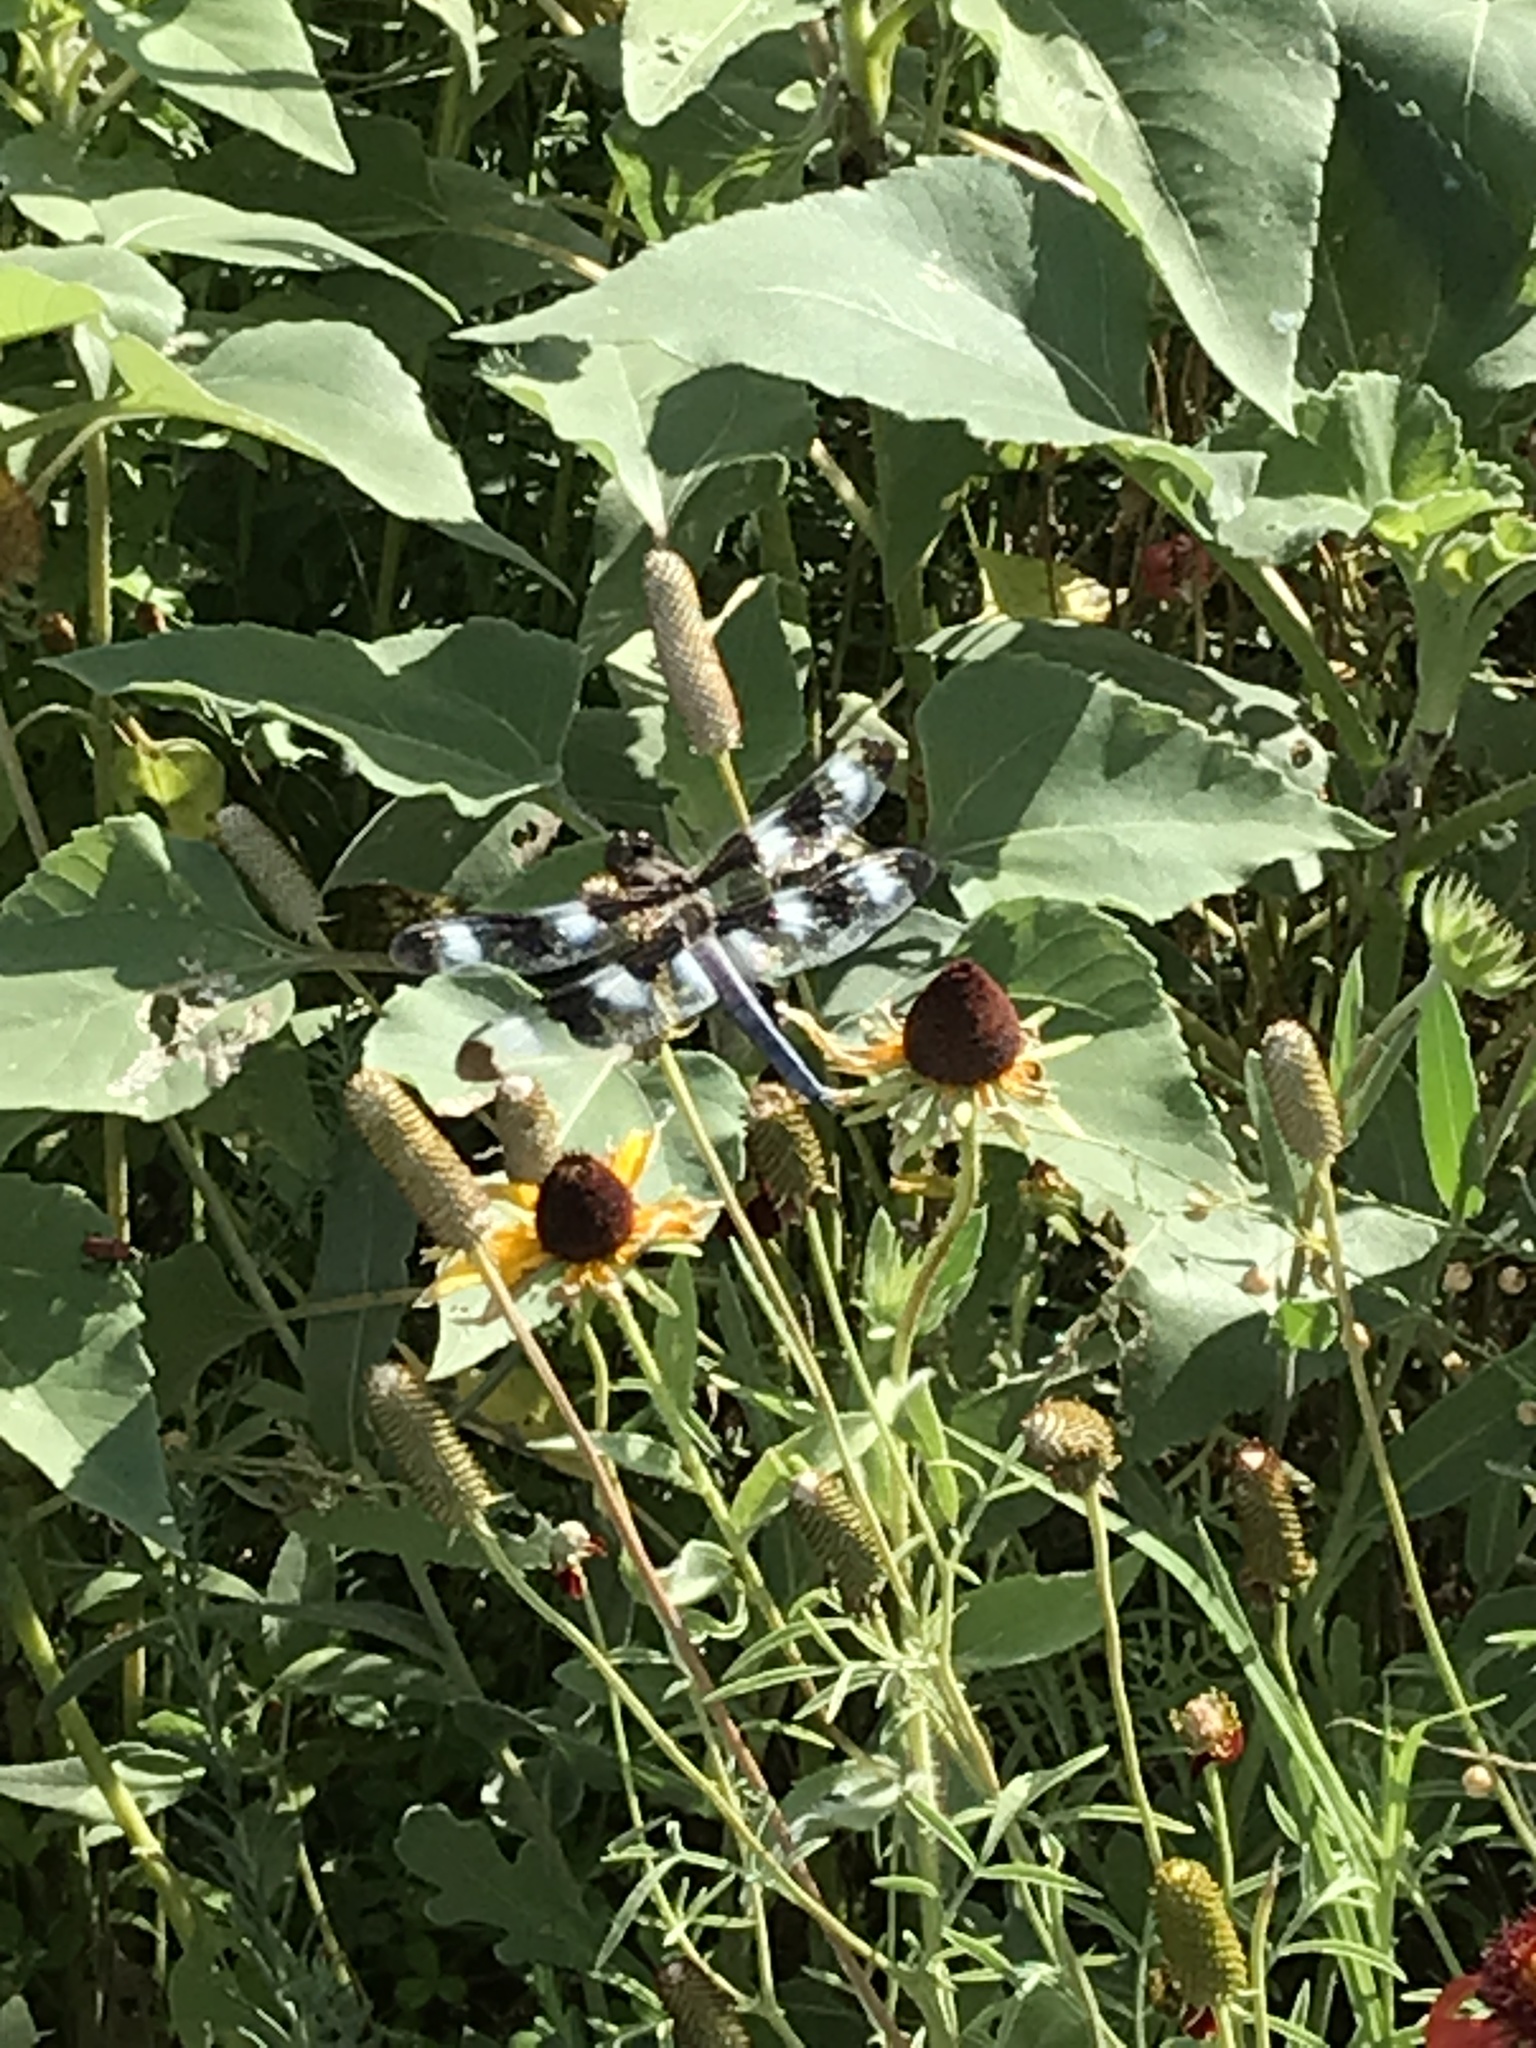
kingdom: Animalia
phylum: Arthropoda
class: Insecta
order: Odonata
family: Libellulidae
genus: Libellula
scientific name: Libellula pulchella
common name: Twelve-spotted skimmer
